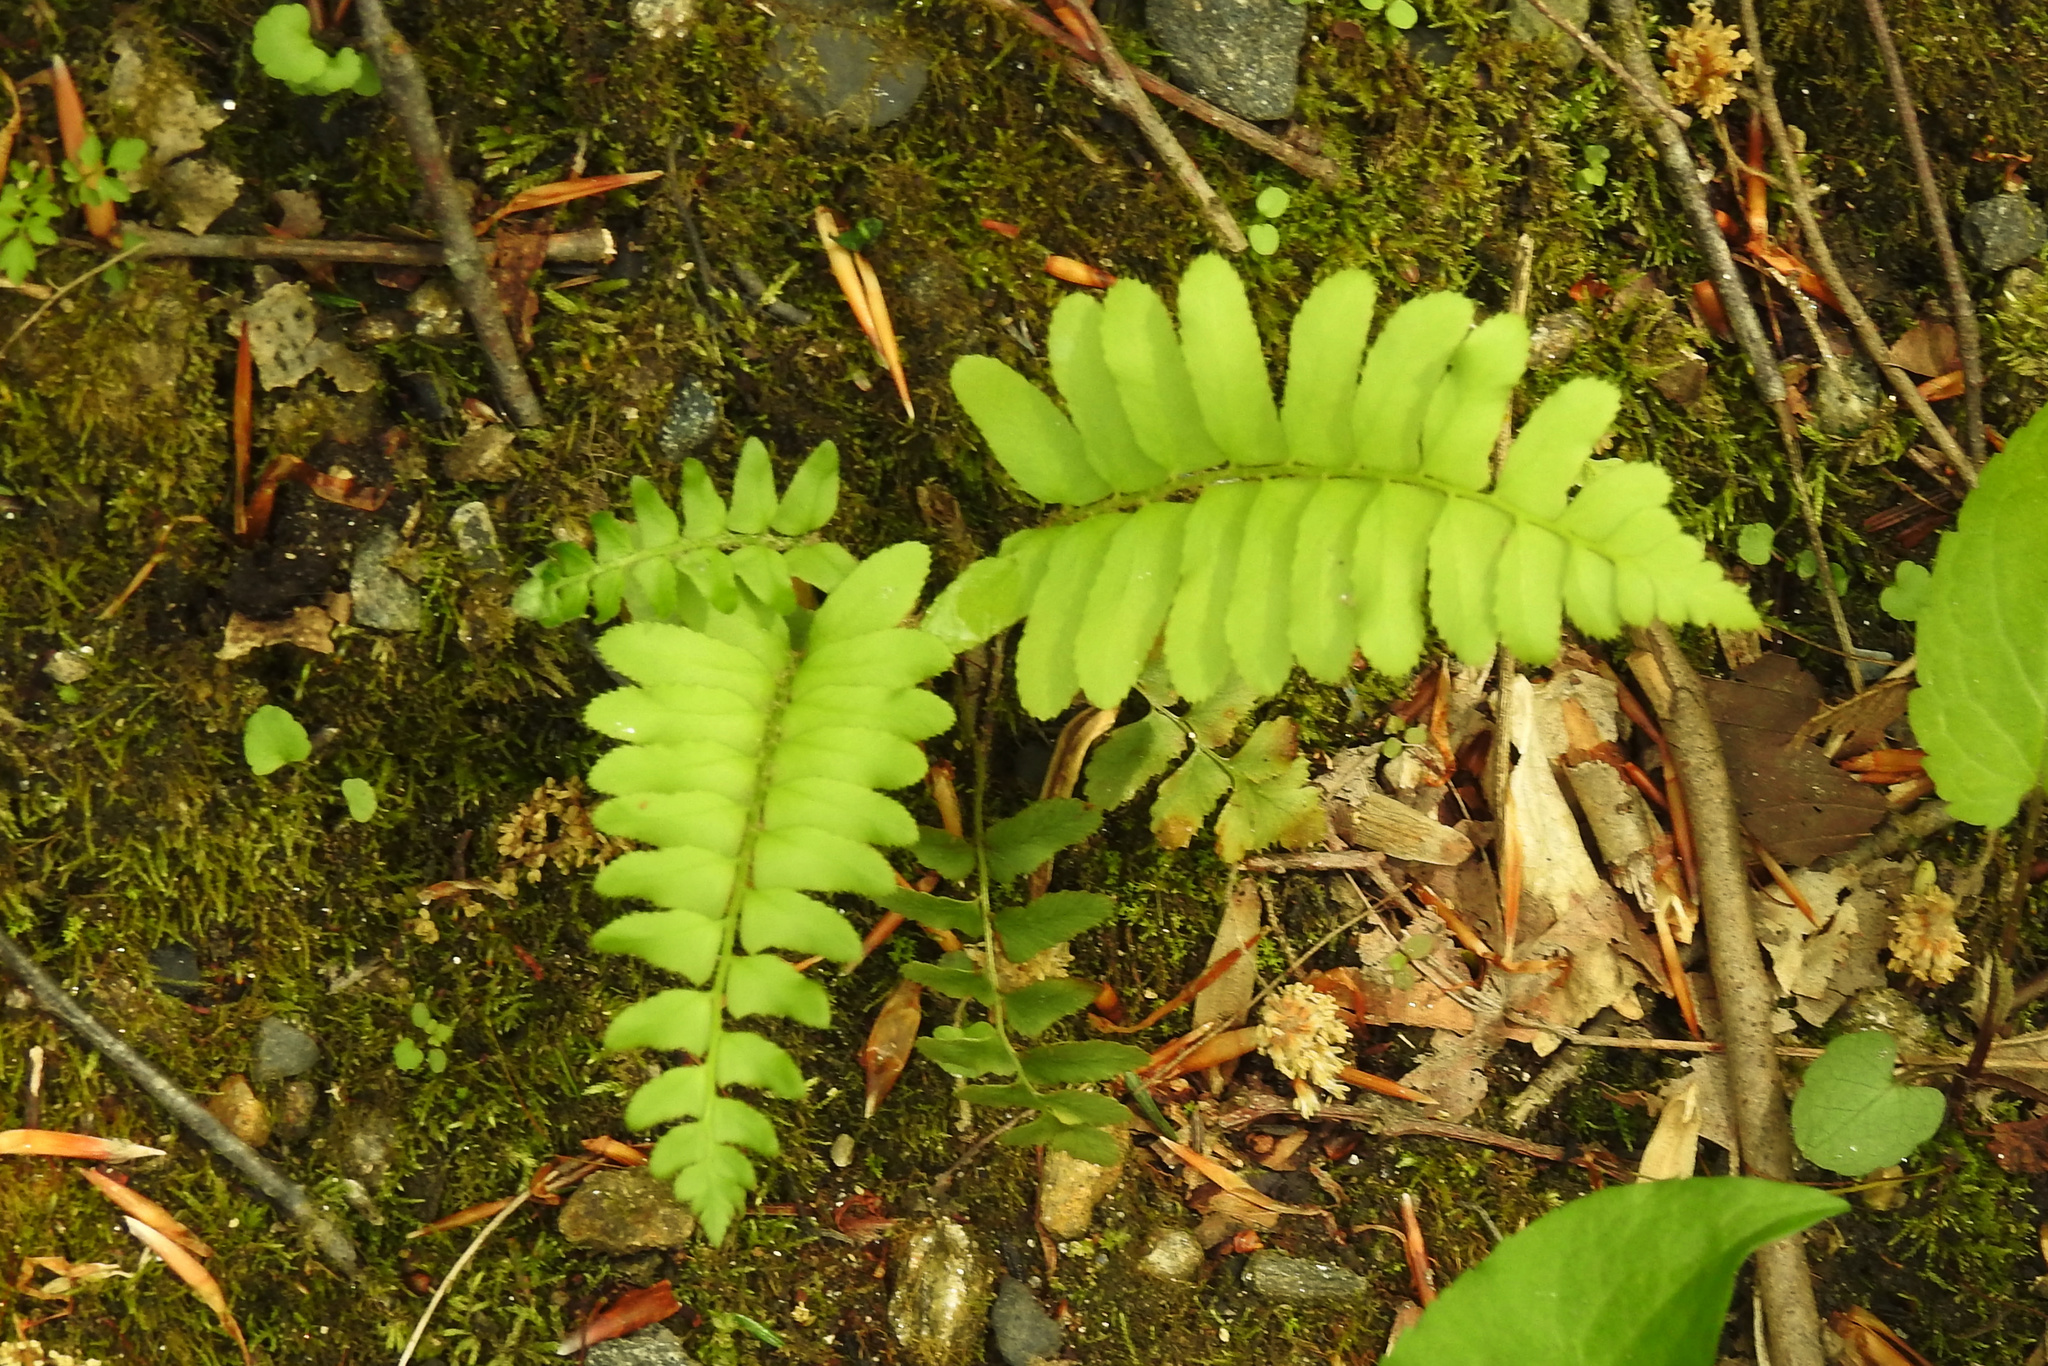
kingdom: Plantae
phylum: Tracheophyta
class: Polypodiopsida
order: Polypodiales
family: Dryopteridaceae
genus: Polystichum
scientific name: Polystichum acrostichoides
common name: Christmas fern
